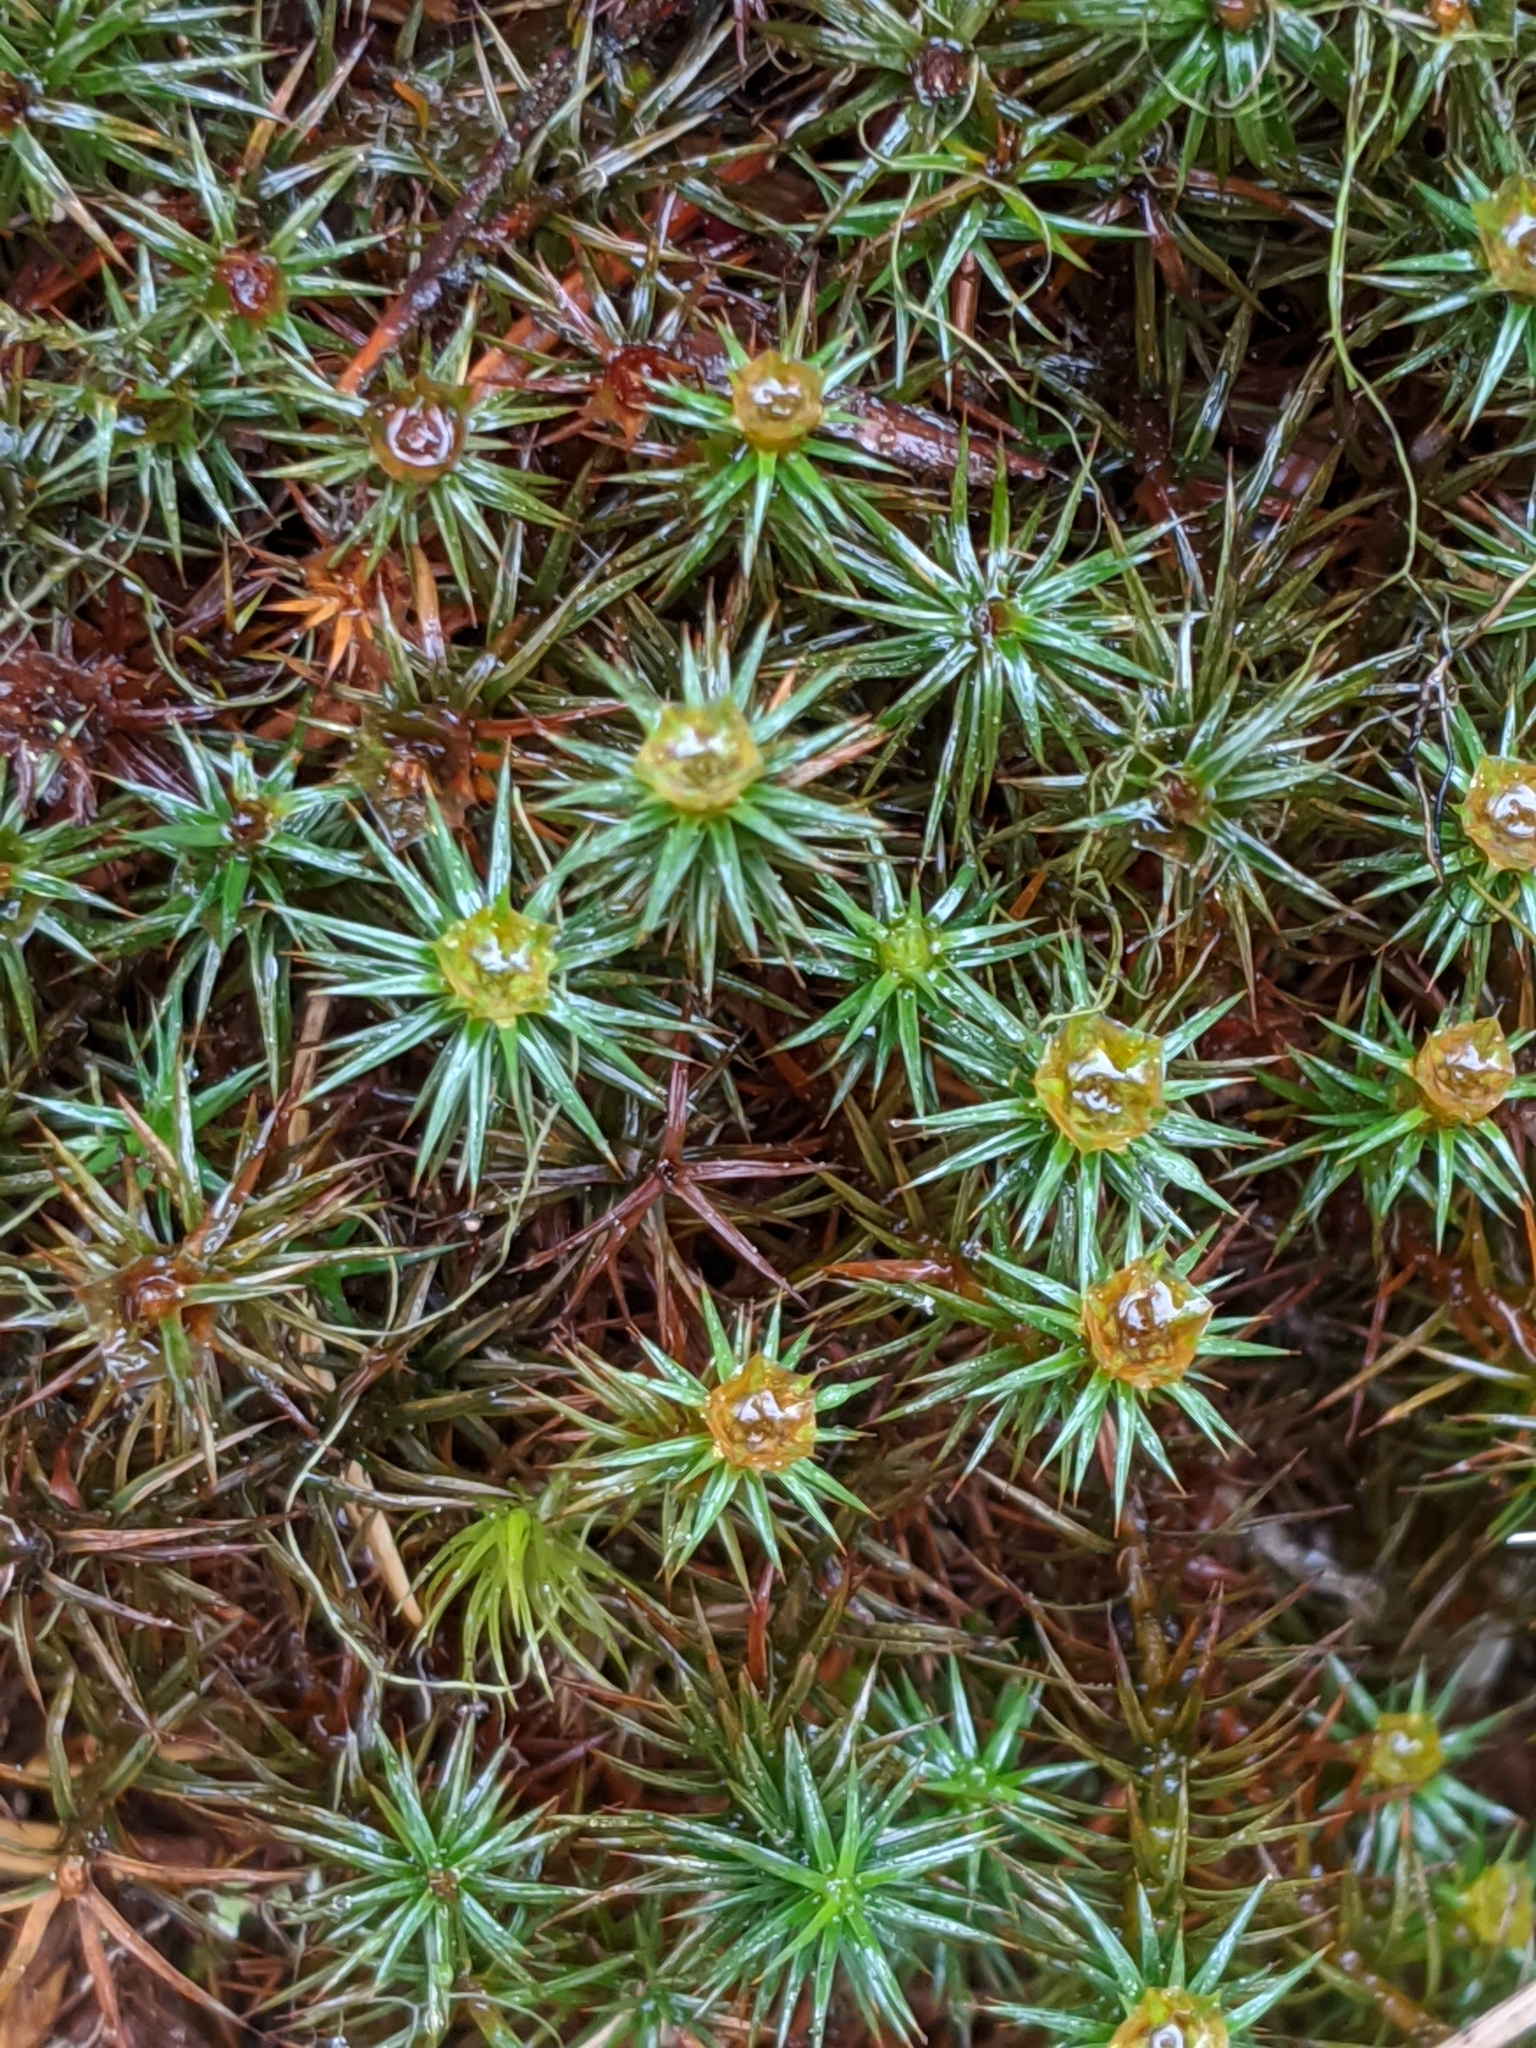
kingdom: Plantae
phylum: Bryophyta
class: Polytrichopsida
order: Polytrichales
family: Polytrichaceae
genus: Polytrichum
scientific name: Polytrichum juniperinum
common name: Juniper haircap moss
